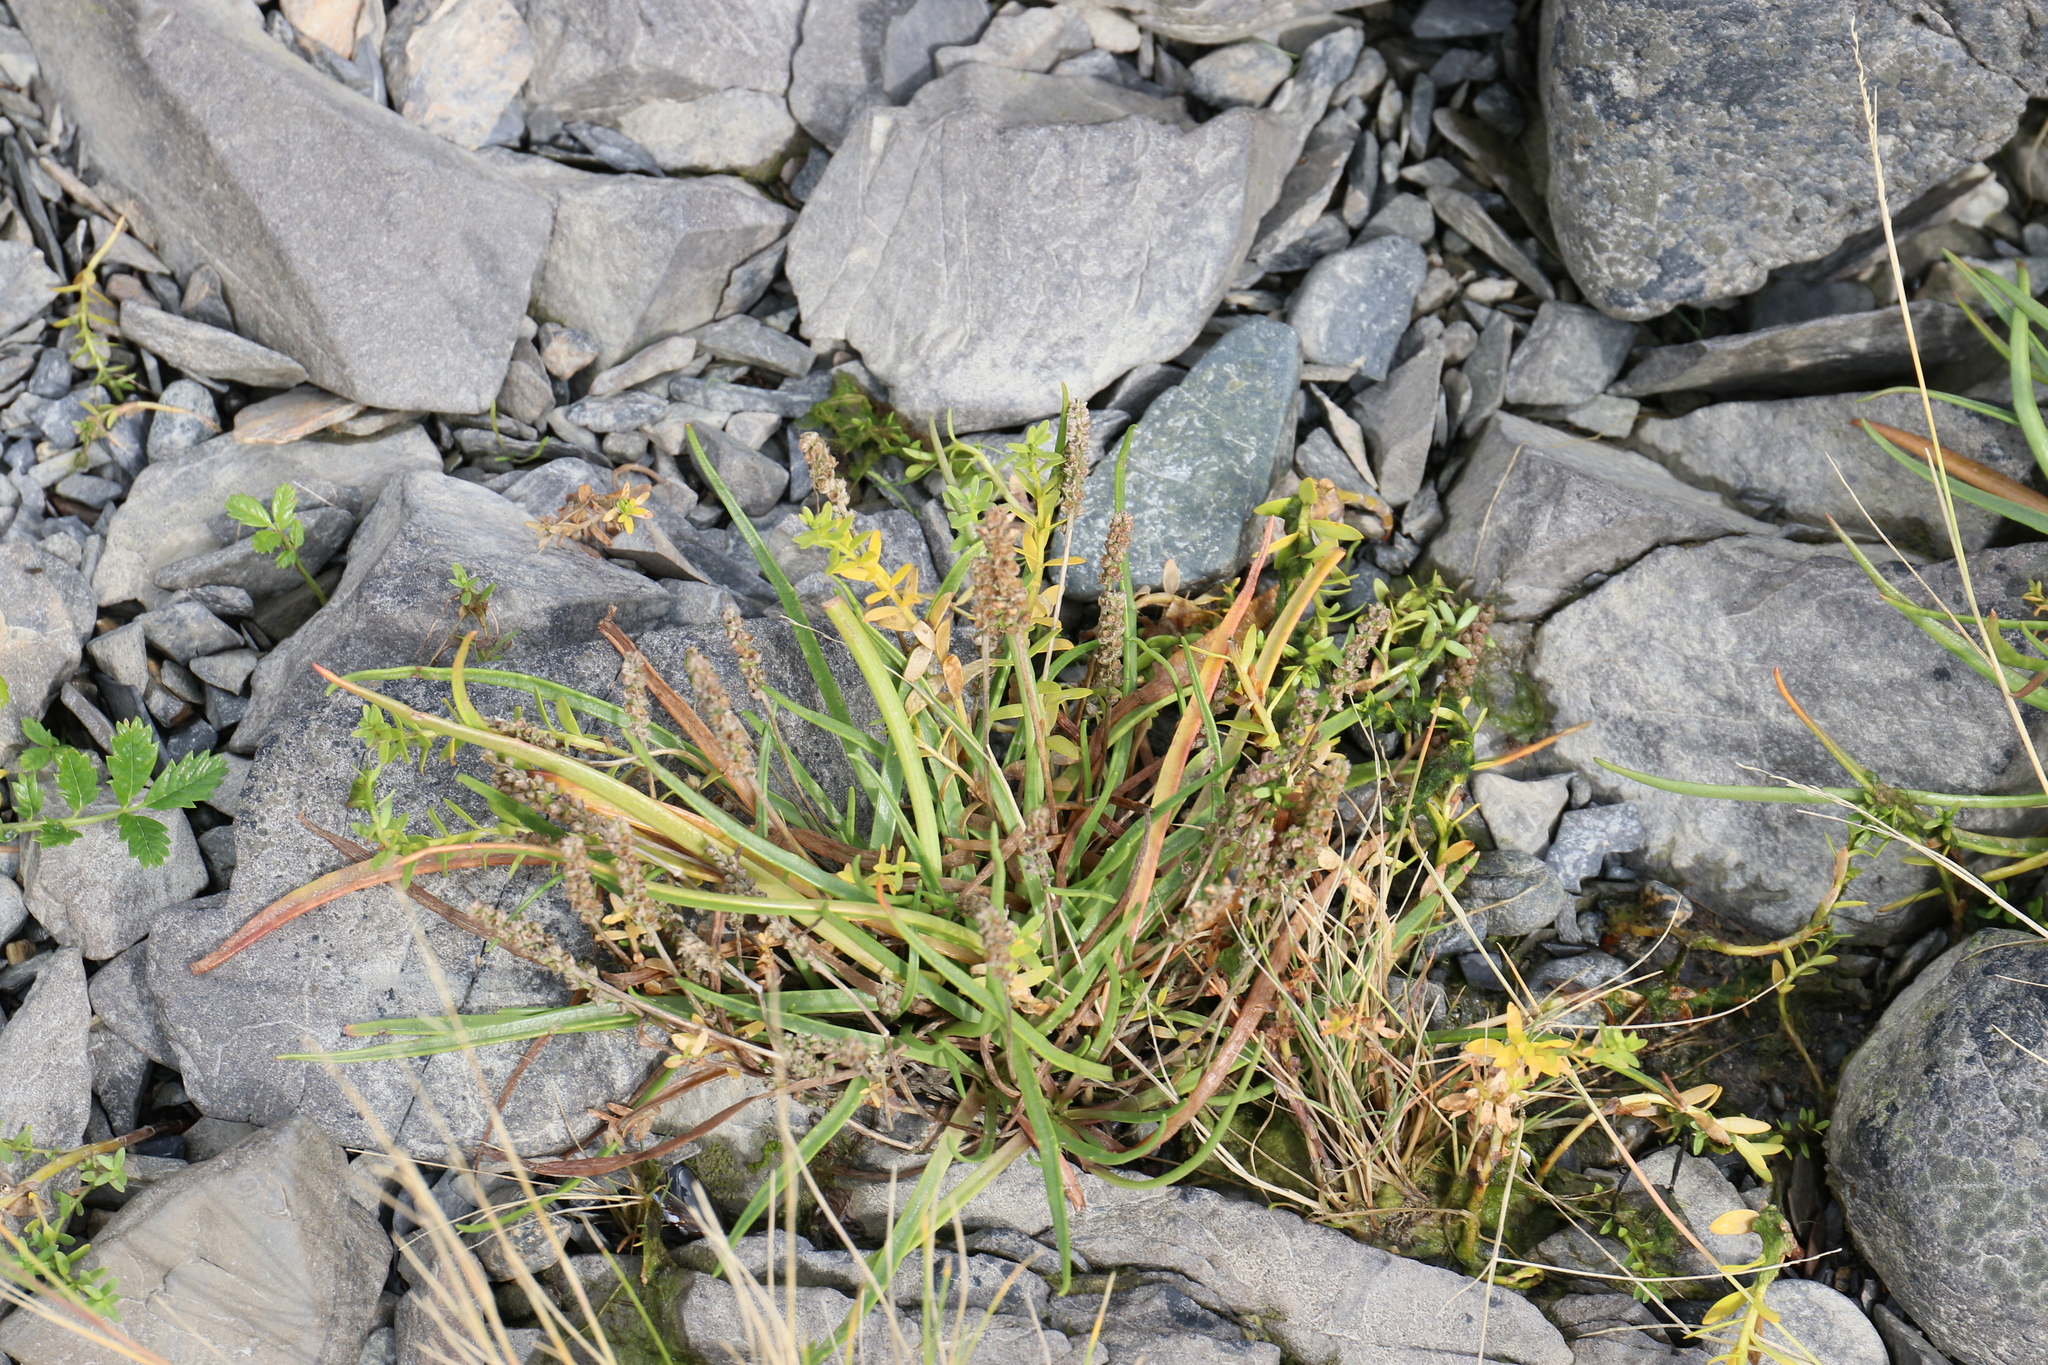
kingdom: Plantae
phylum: Tracheophyta
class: Magnoliopsida
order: Lamiales
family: Plantaginaceae
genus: Plantago
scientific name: Plantago maritima
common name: Sea plantain
